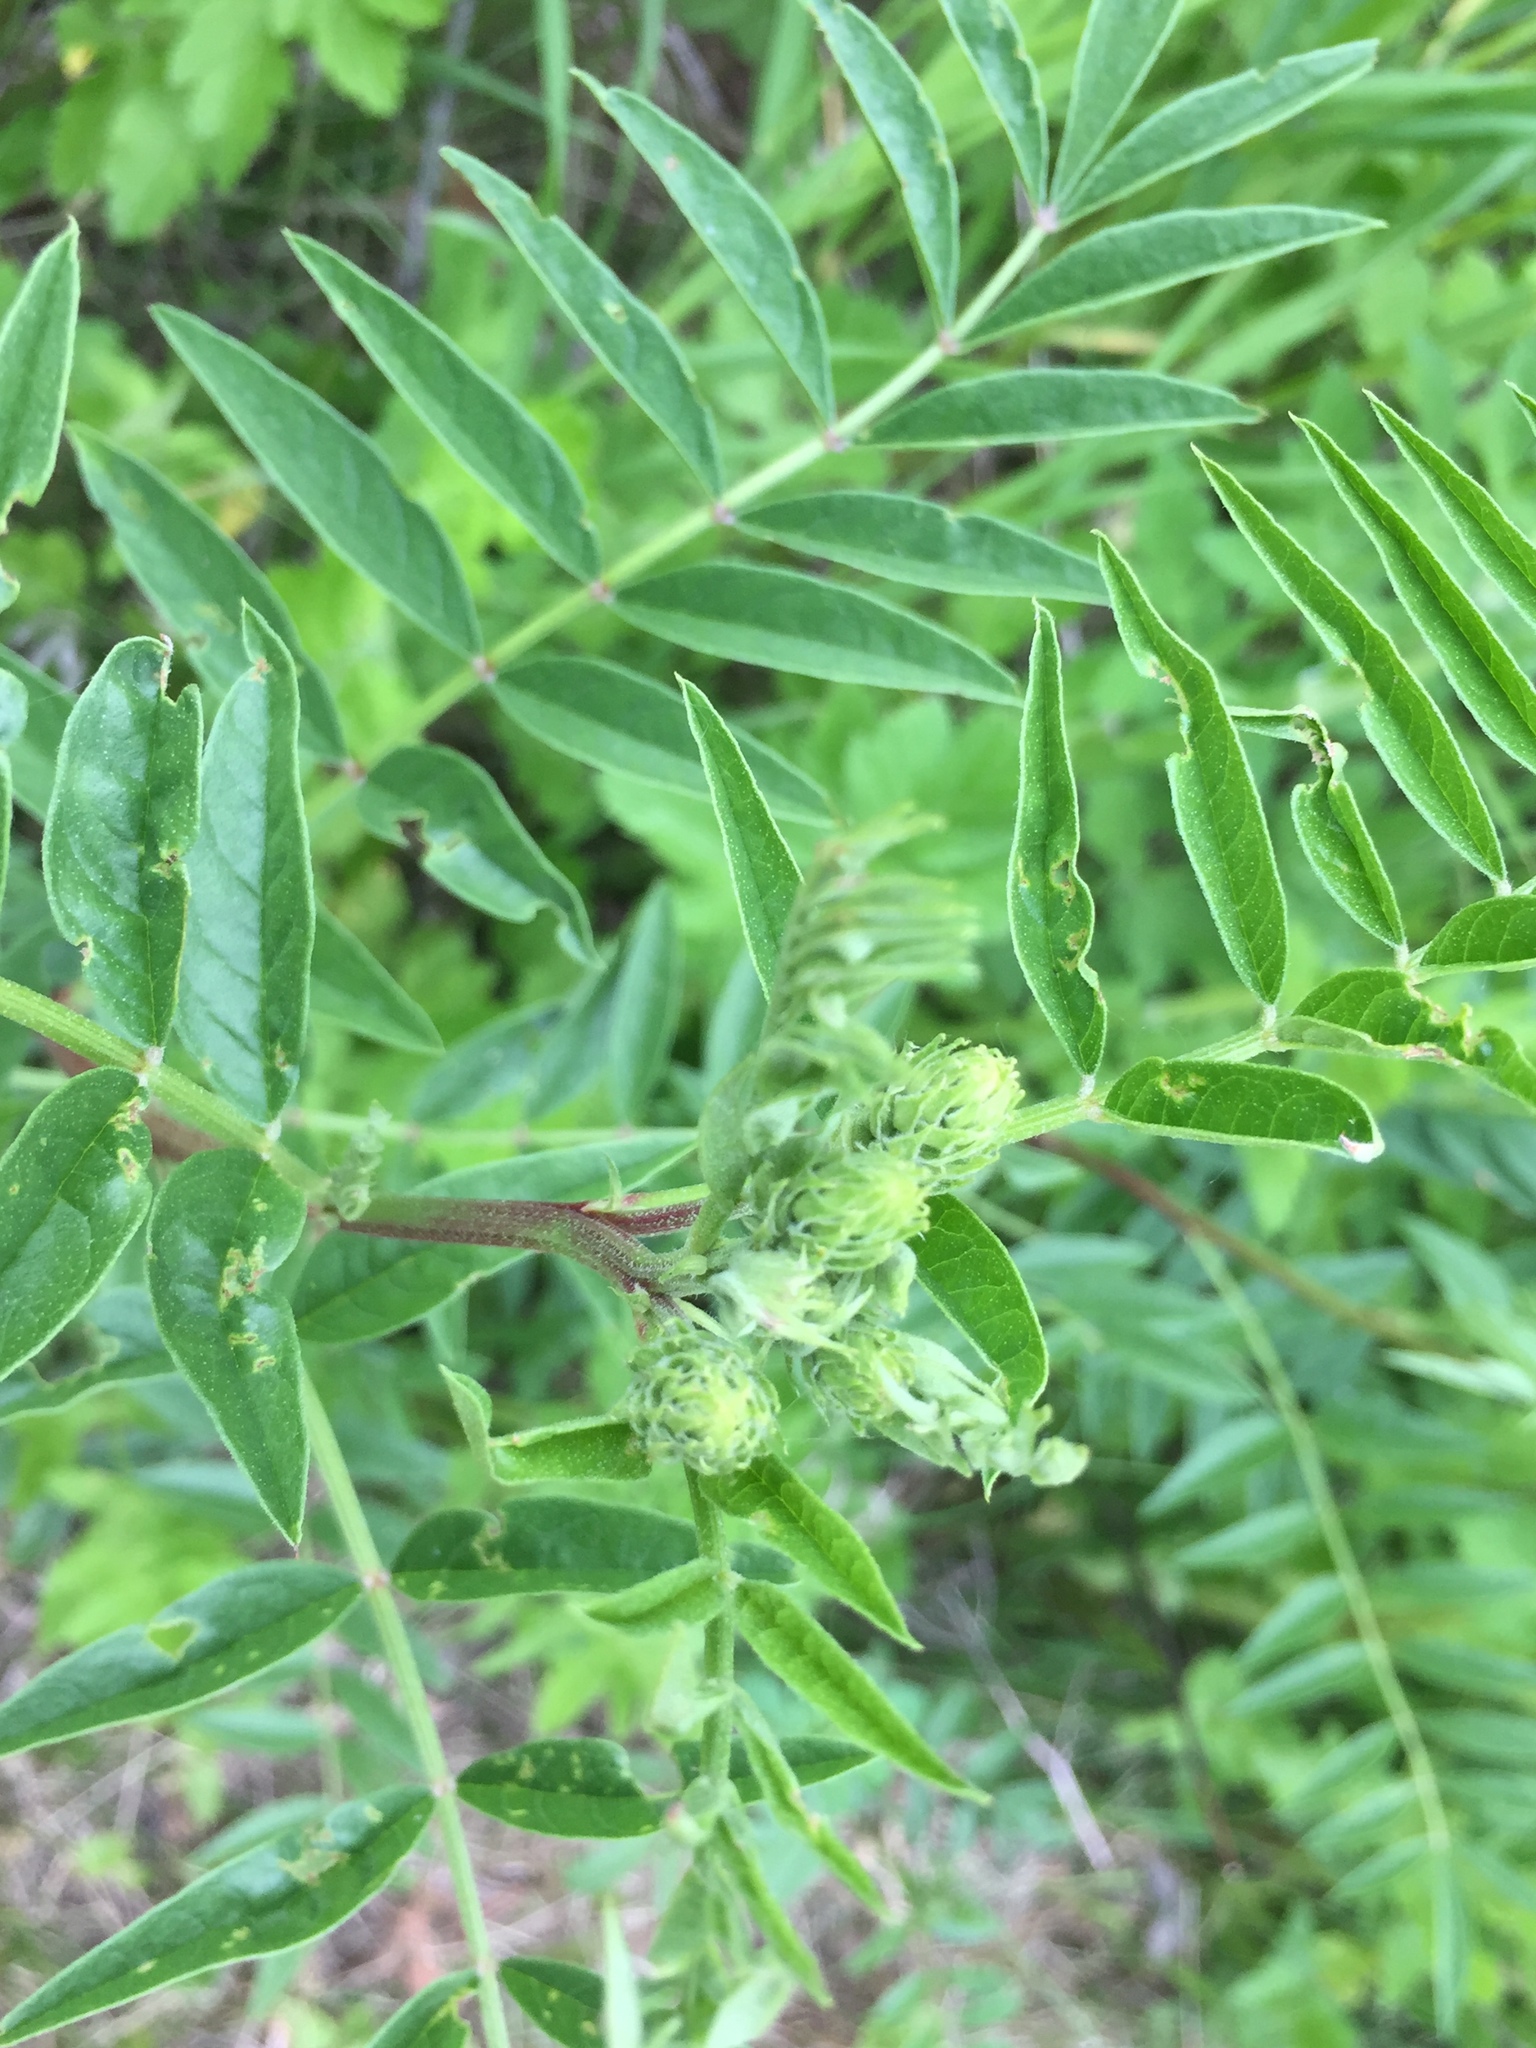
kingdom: Plantae
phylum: Tracheophyta
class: Magnoliopsida
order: Fabales
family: Fabaceae
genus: Glycyrrhiza
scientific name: Glycyrrhiza lepidota
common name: American liquorice
